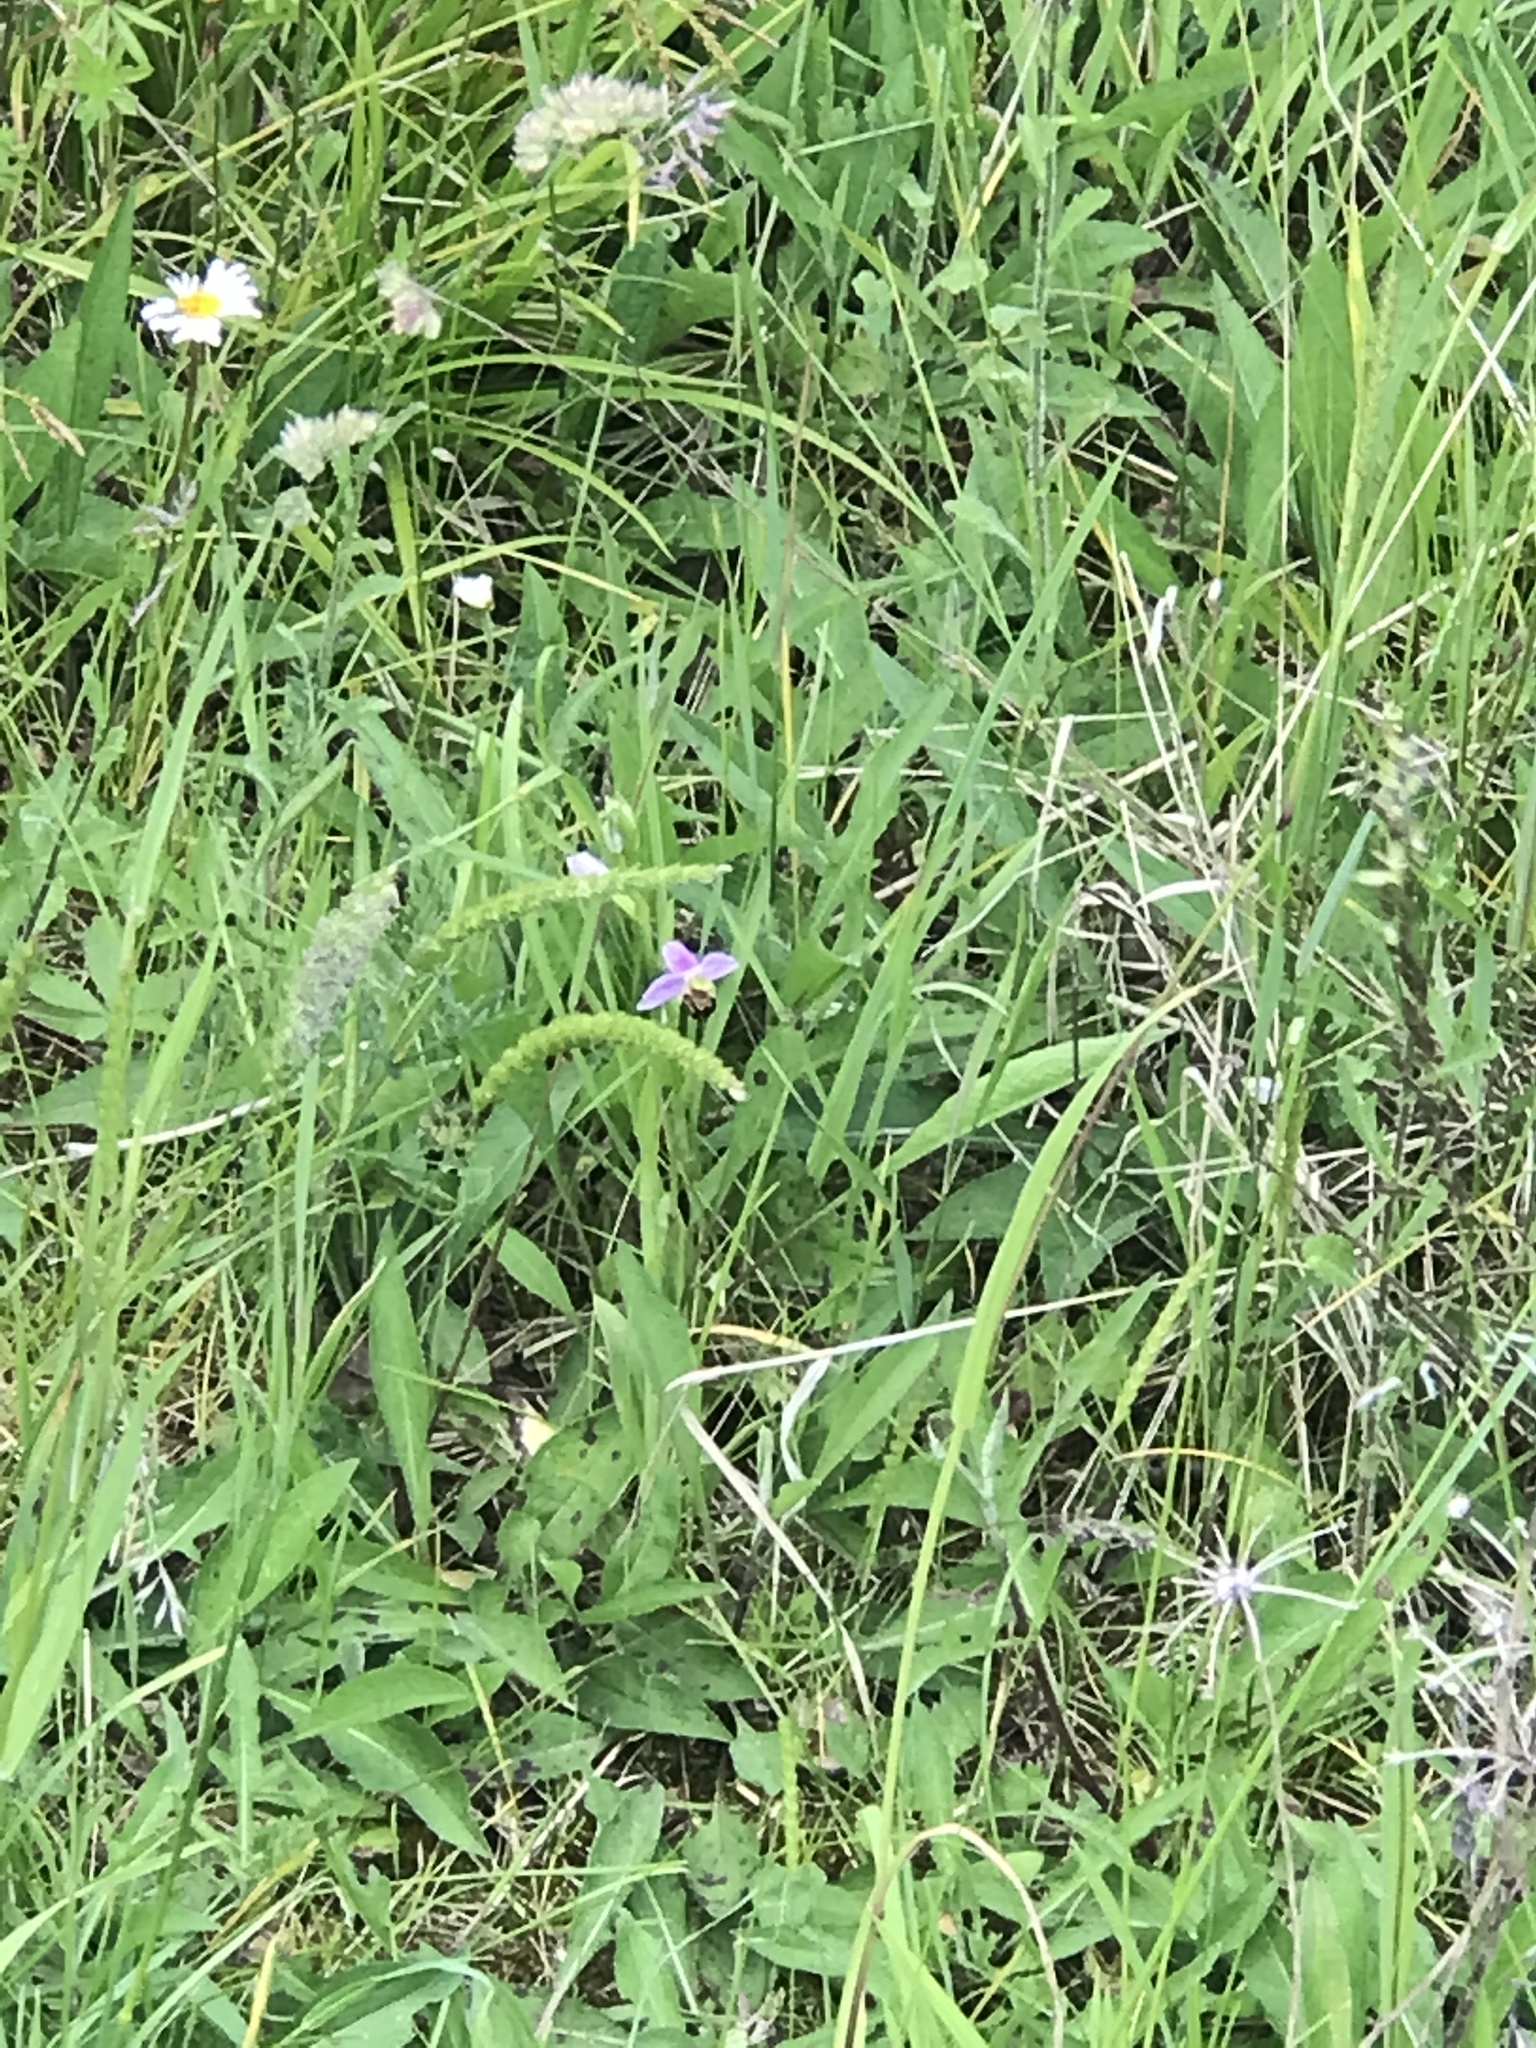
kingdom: Plantae
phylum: Tracheophyta
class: Liliopsida
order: Asparagales
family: Orchidaceae
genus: Ophrys
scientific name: Ophrys apifera
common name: Bee orchid
